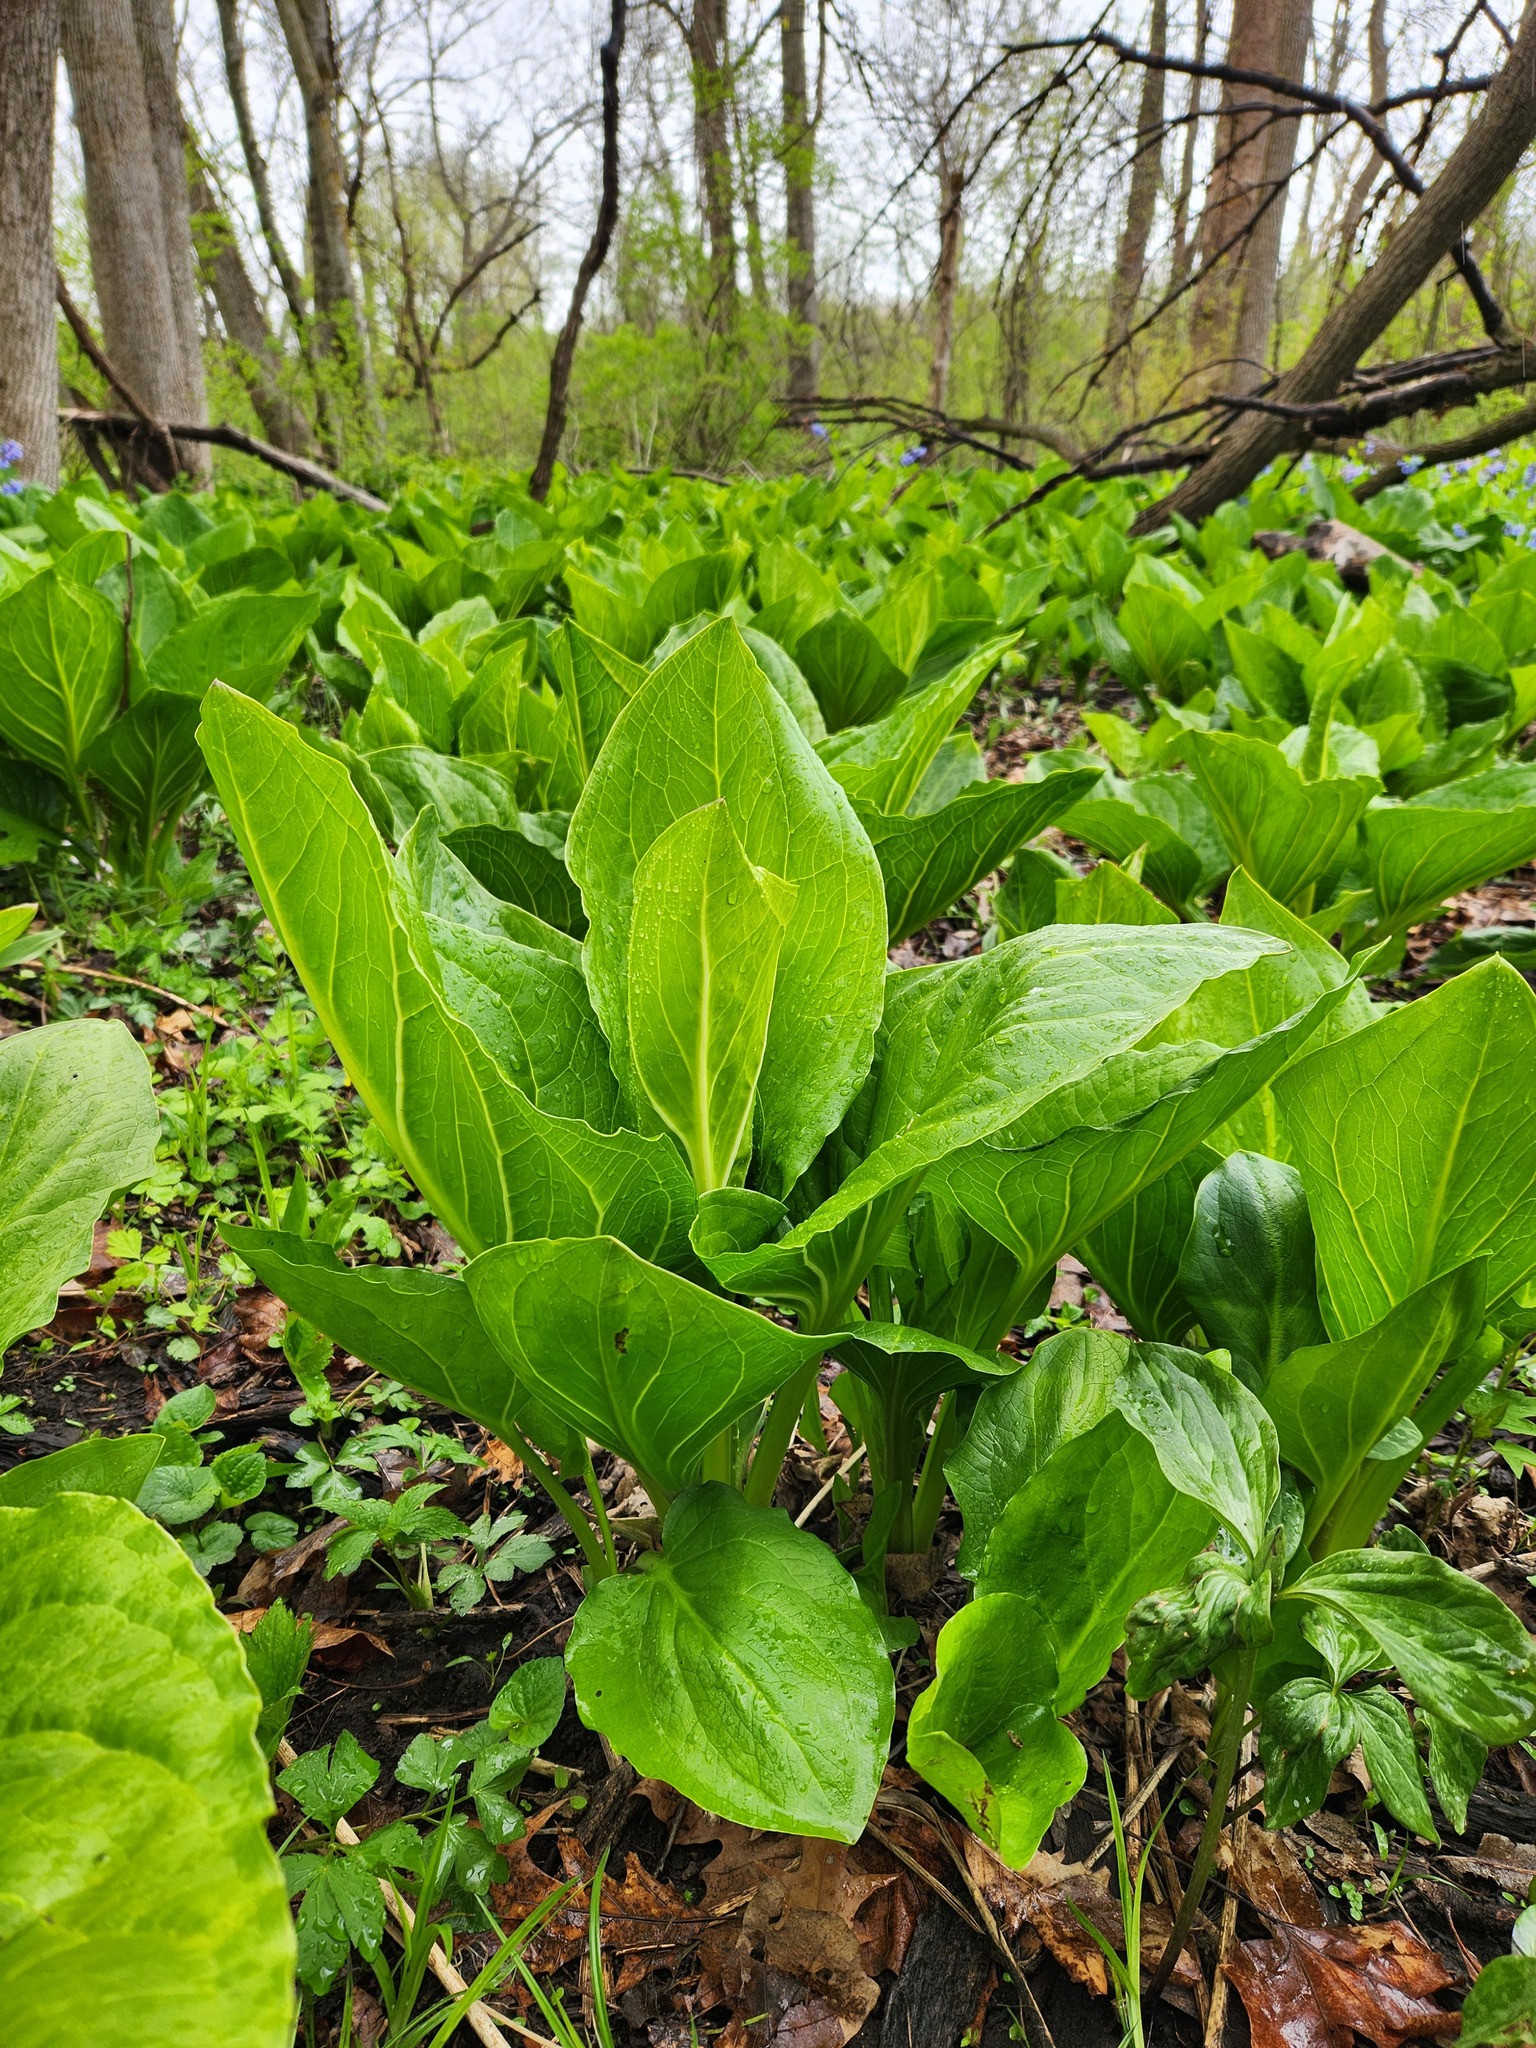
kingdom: Plantae
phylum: Tracheophyta
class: Liliopsida
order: Alismatales
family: Araceae
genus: Symplocarpus
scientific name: Symplocarpus foetidus
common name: Eastern skunk cabbage
